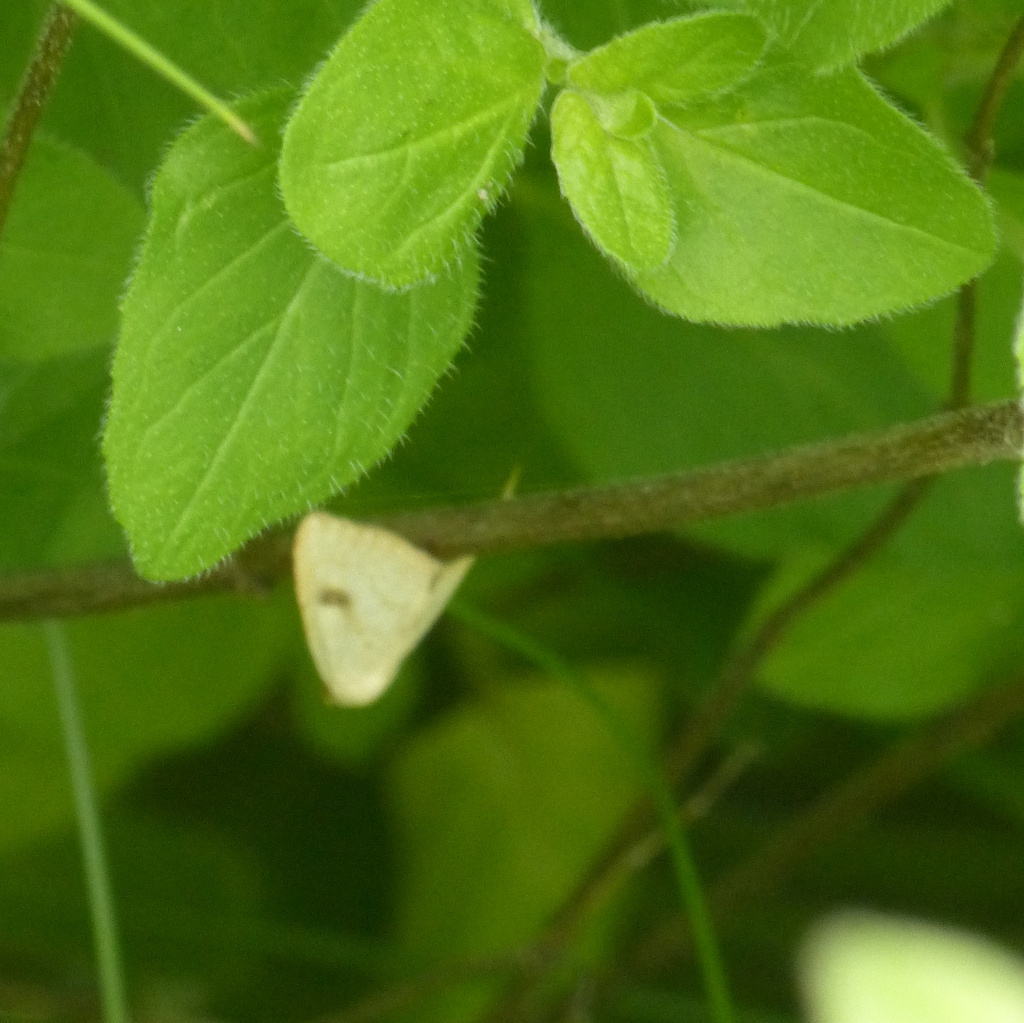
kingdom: Animalia
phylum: Arthropoda
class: Insecta
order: Lepidoptera
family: Erebidae
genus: Rivula
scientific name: Rivula sericealis
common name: Straw dot
